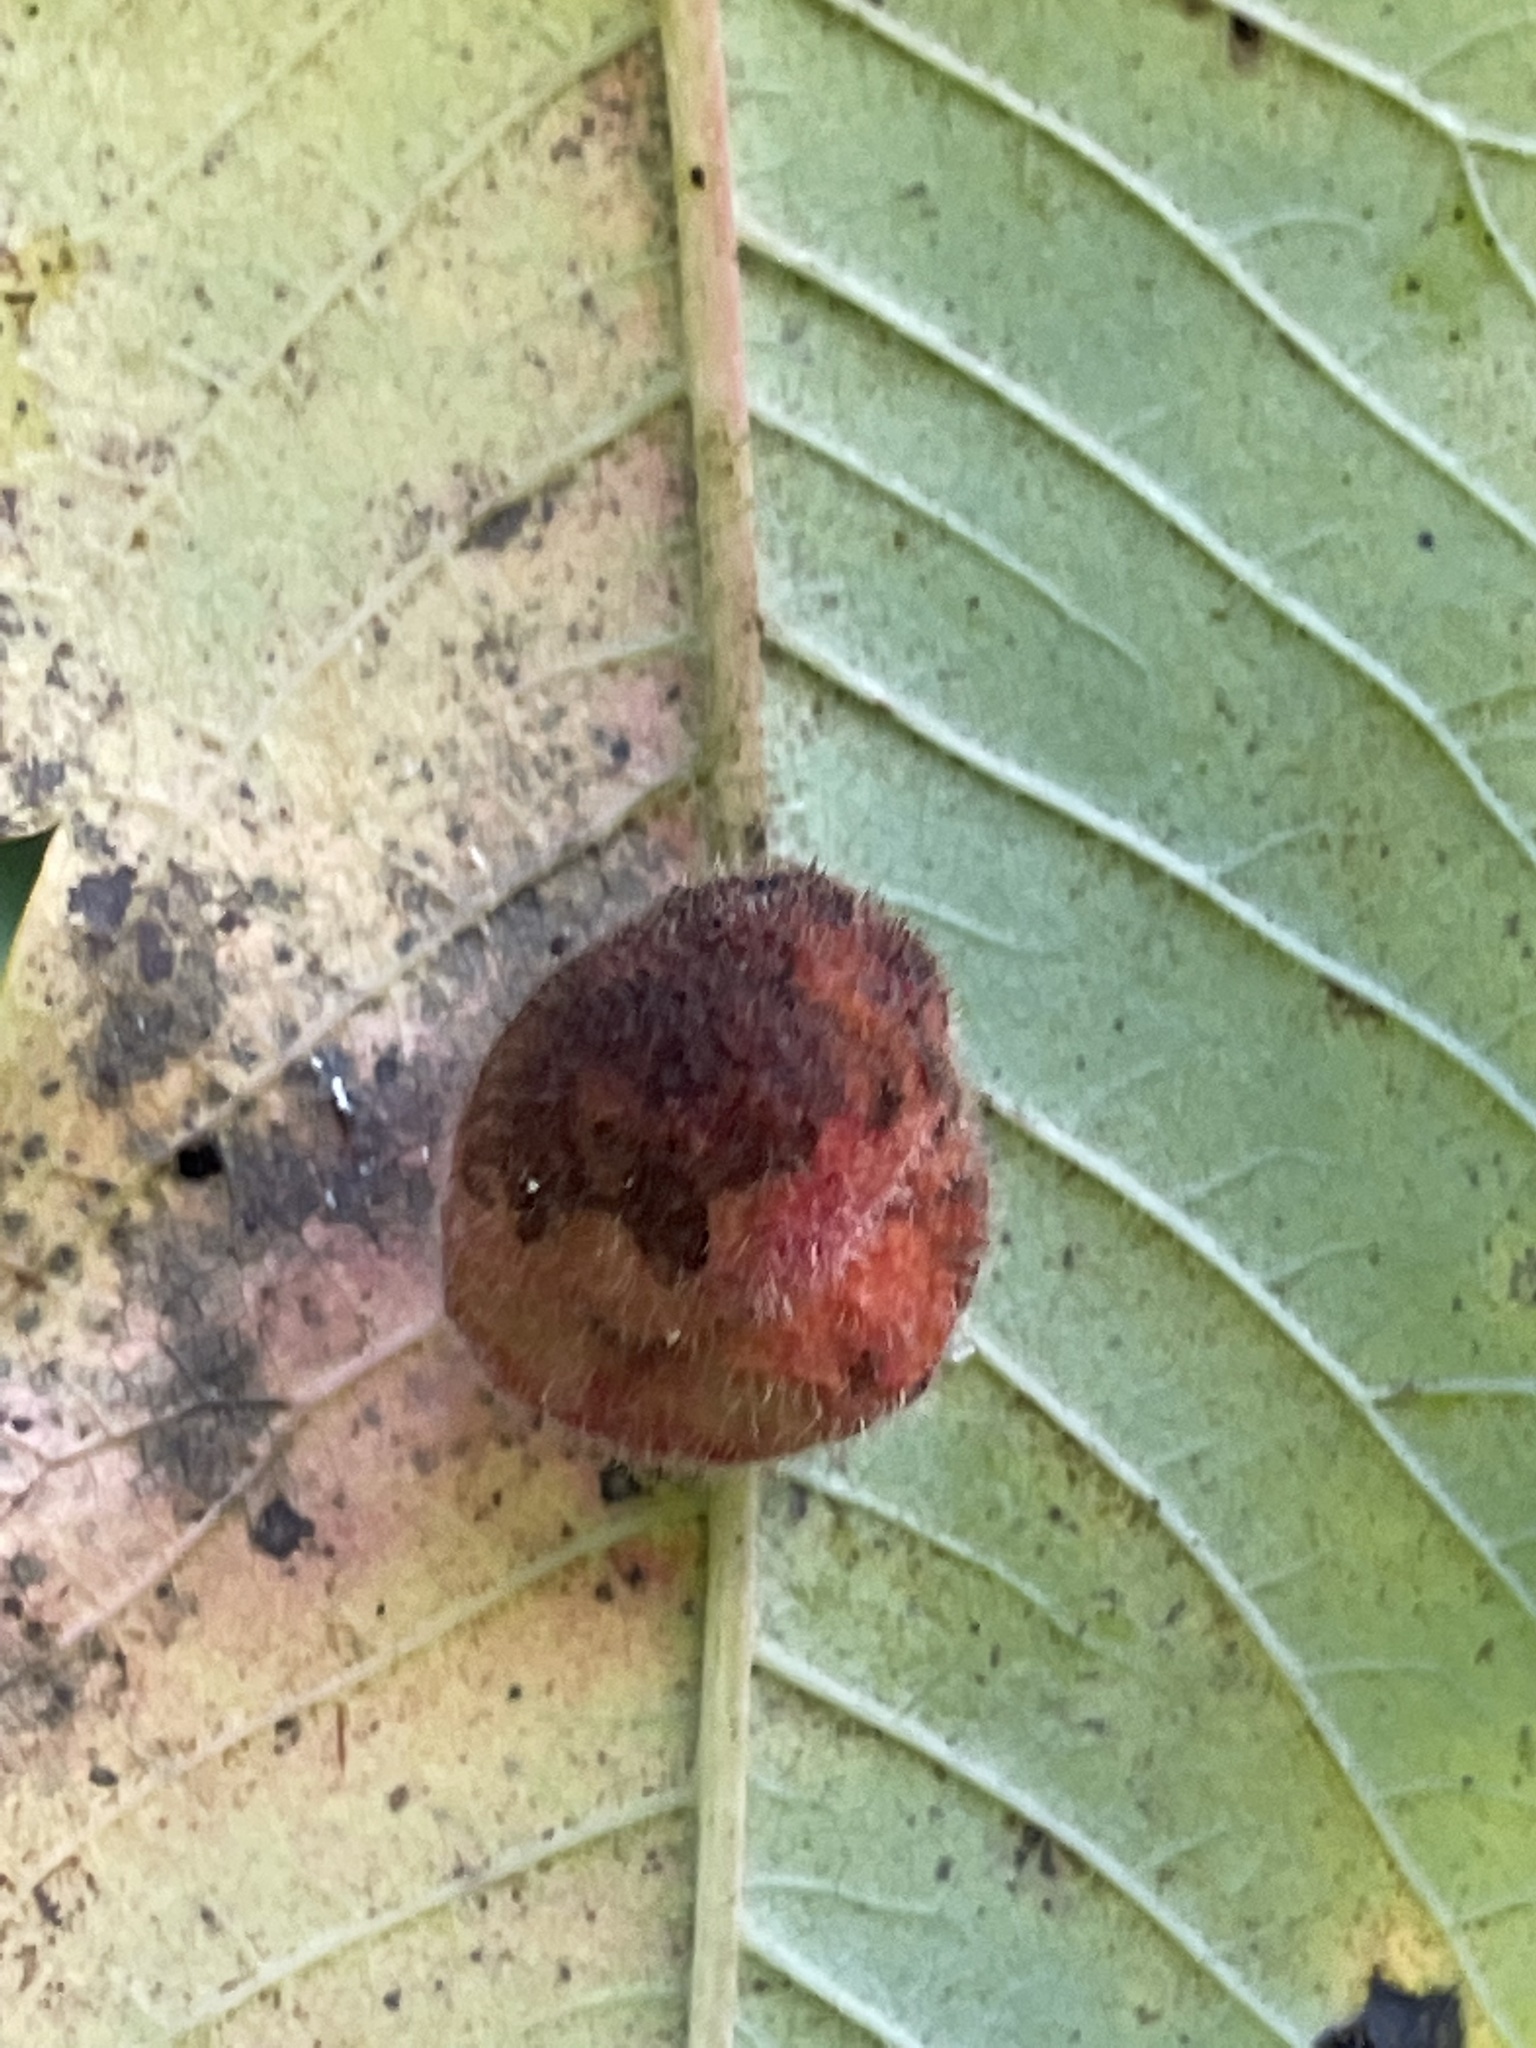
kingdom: Animalia
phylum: Arthropoda
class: Insecta
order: Hemiptera
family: Aphididae
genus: Melaphis
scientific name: Melaphis rhois
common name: Sumac gall aphid
